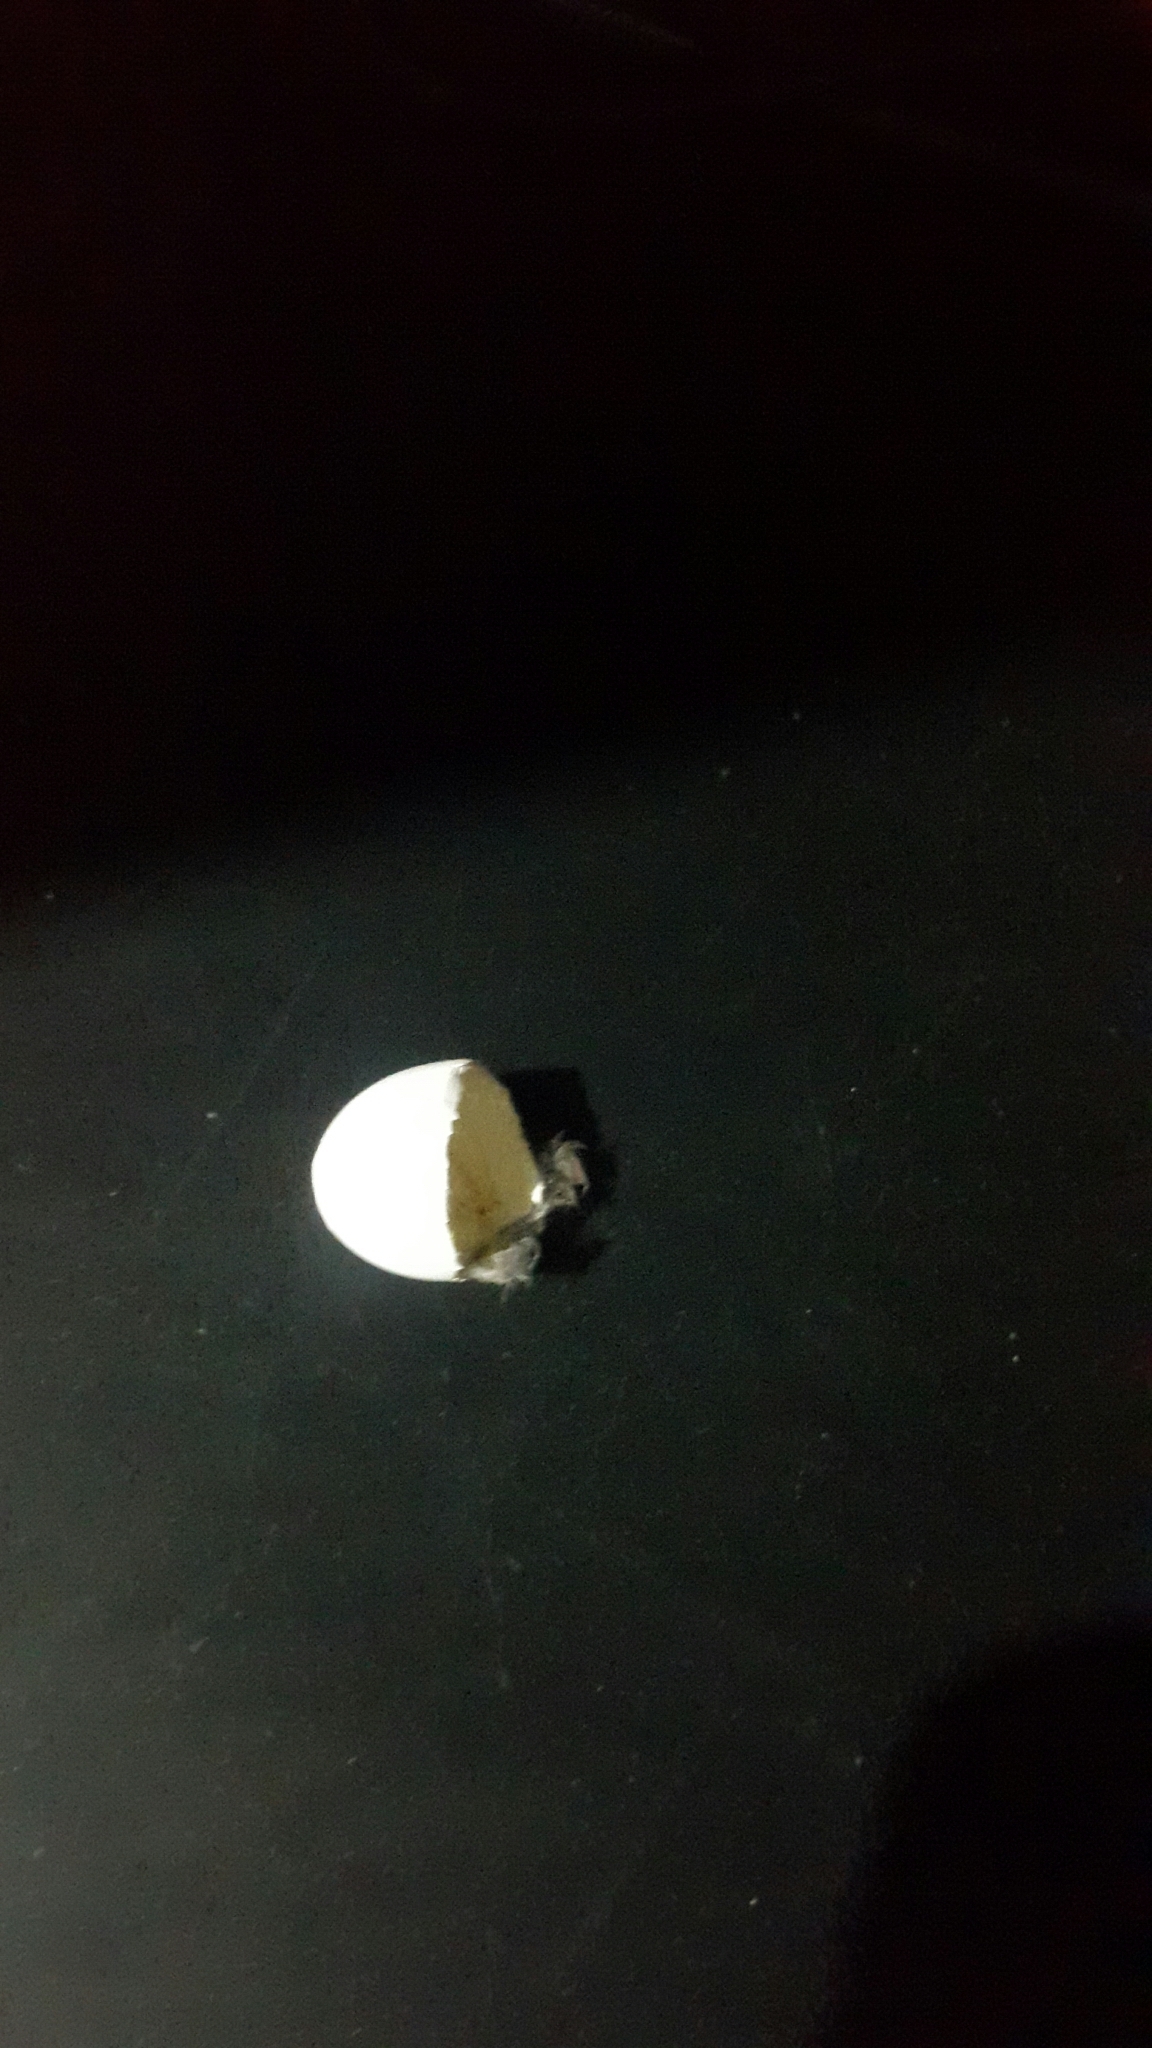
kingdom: Animalia
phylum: Chordata
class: Aves
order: Columbiformes
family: Columbidae
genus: Columbina
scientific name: Columbina inca
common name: Inca dove
